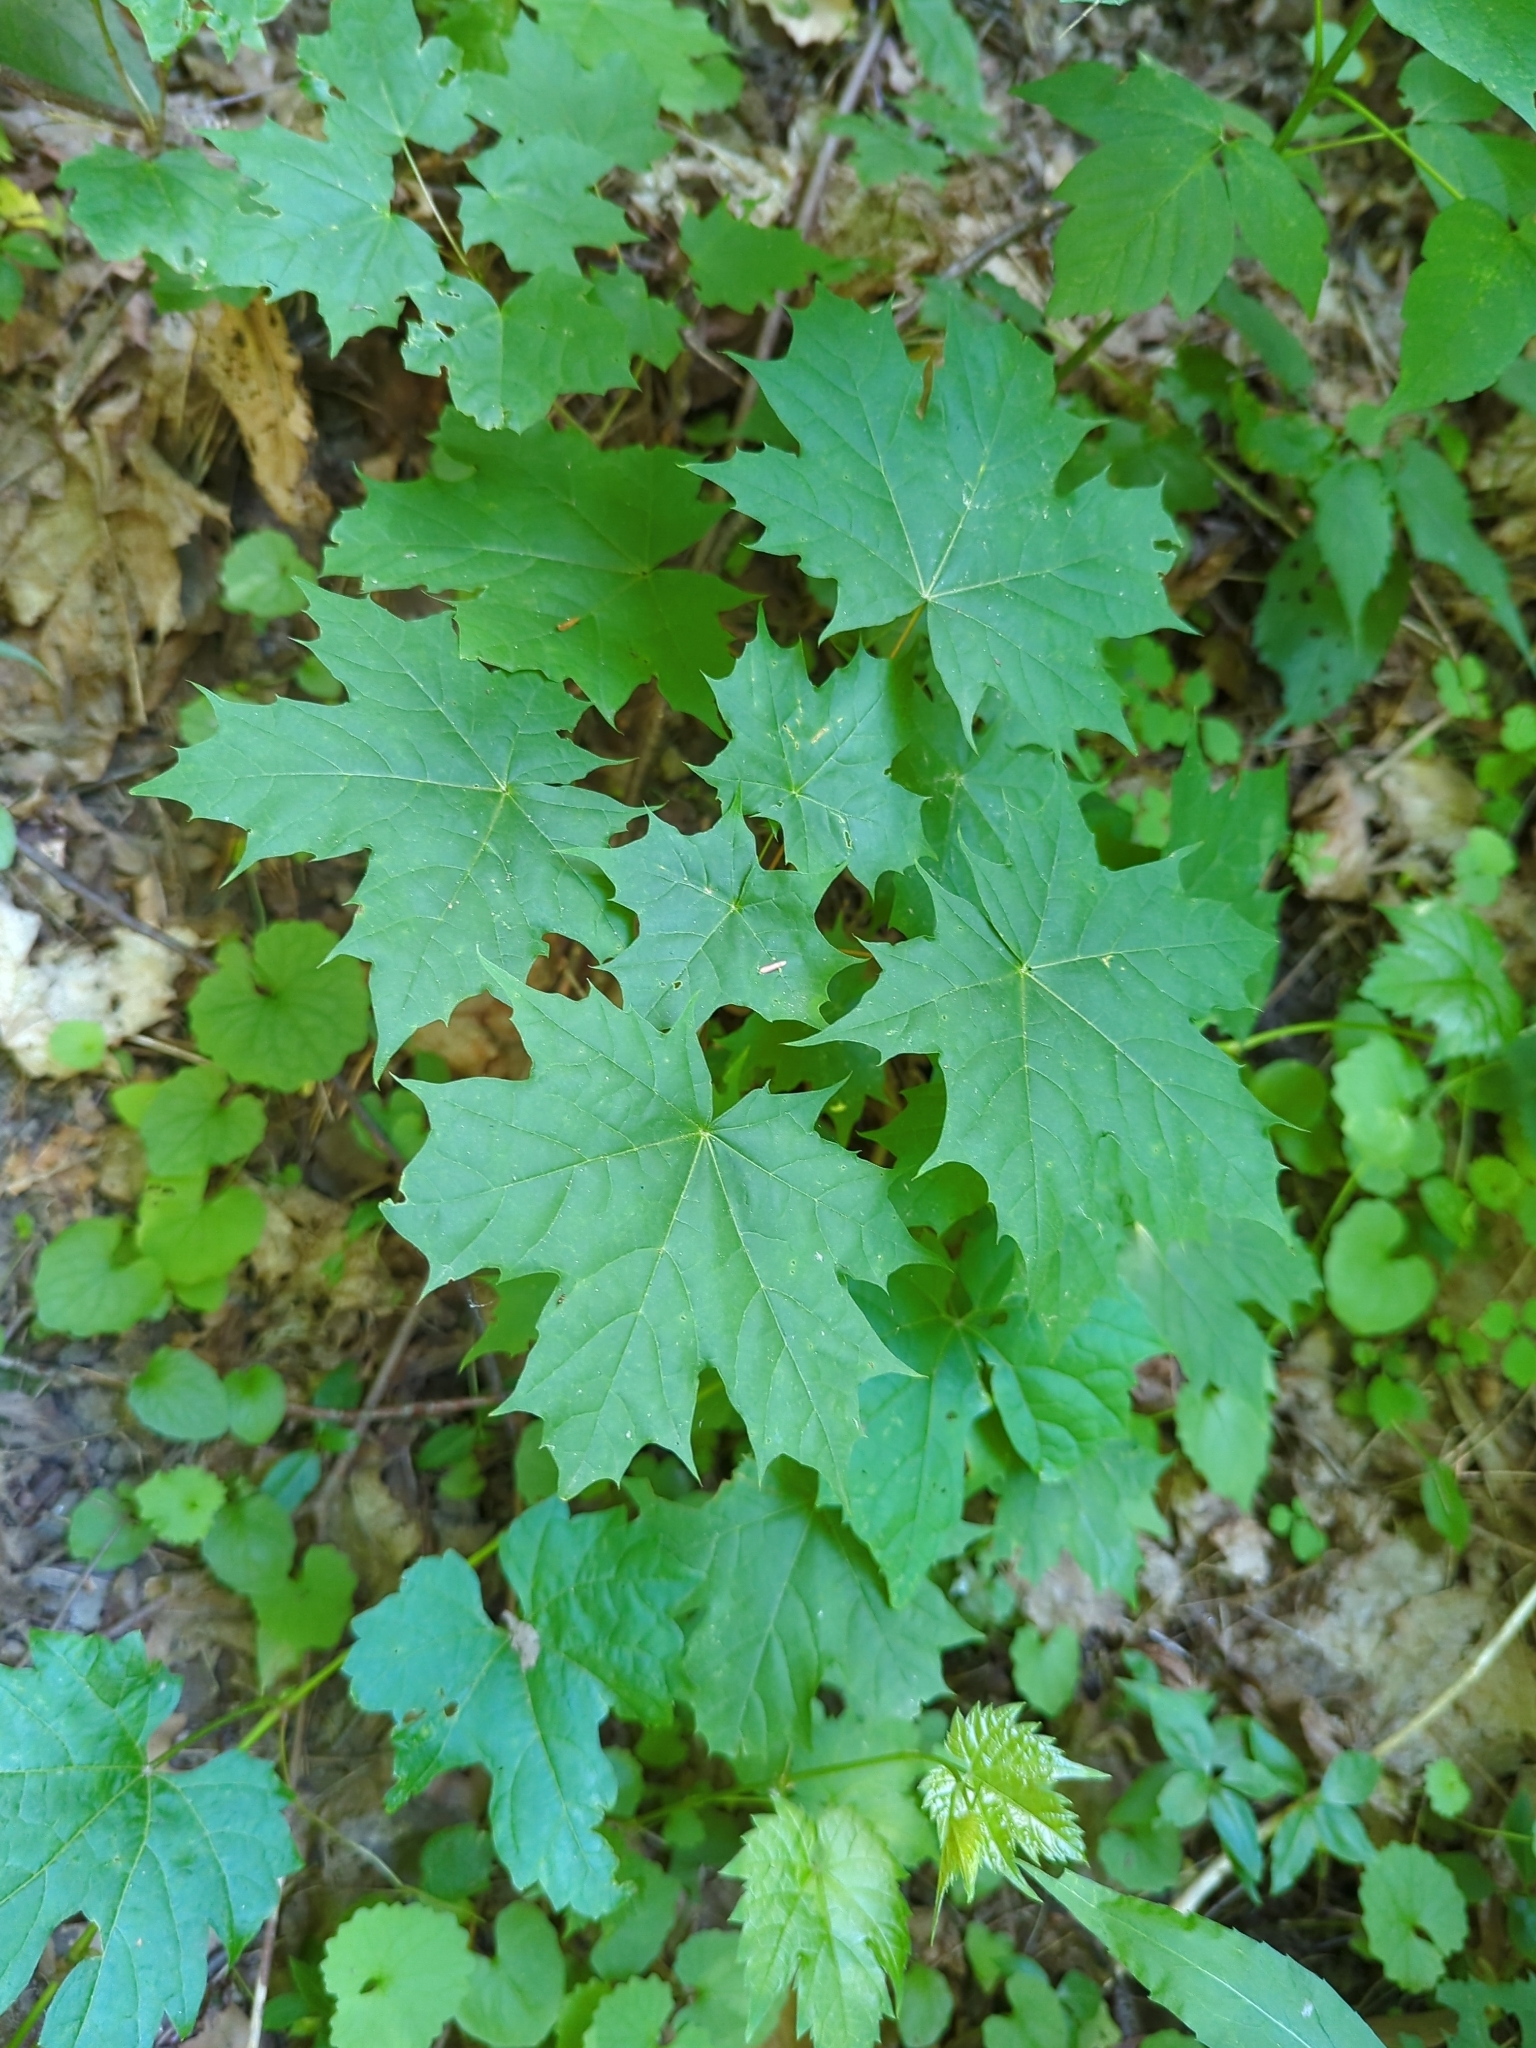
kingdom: Plantae
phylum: Tracheophyta
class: Magnoliopsida
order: Sapindales
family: Sapindaceae
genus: Acer
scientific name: Acer platanoides
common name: Norway maple
